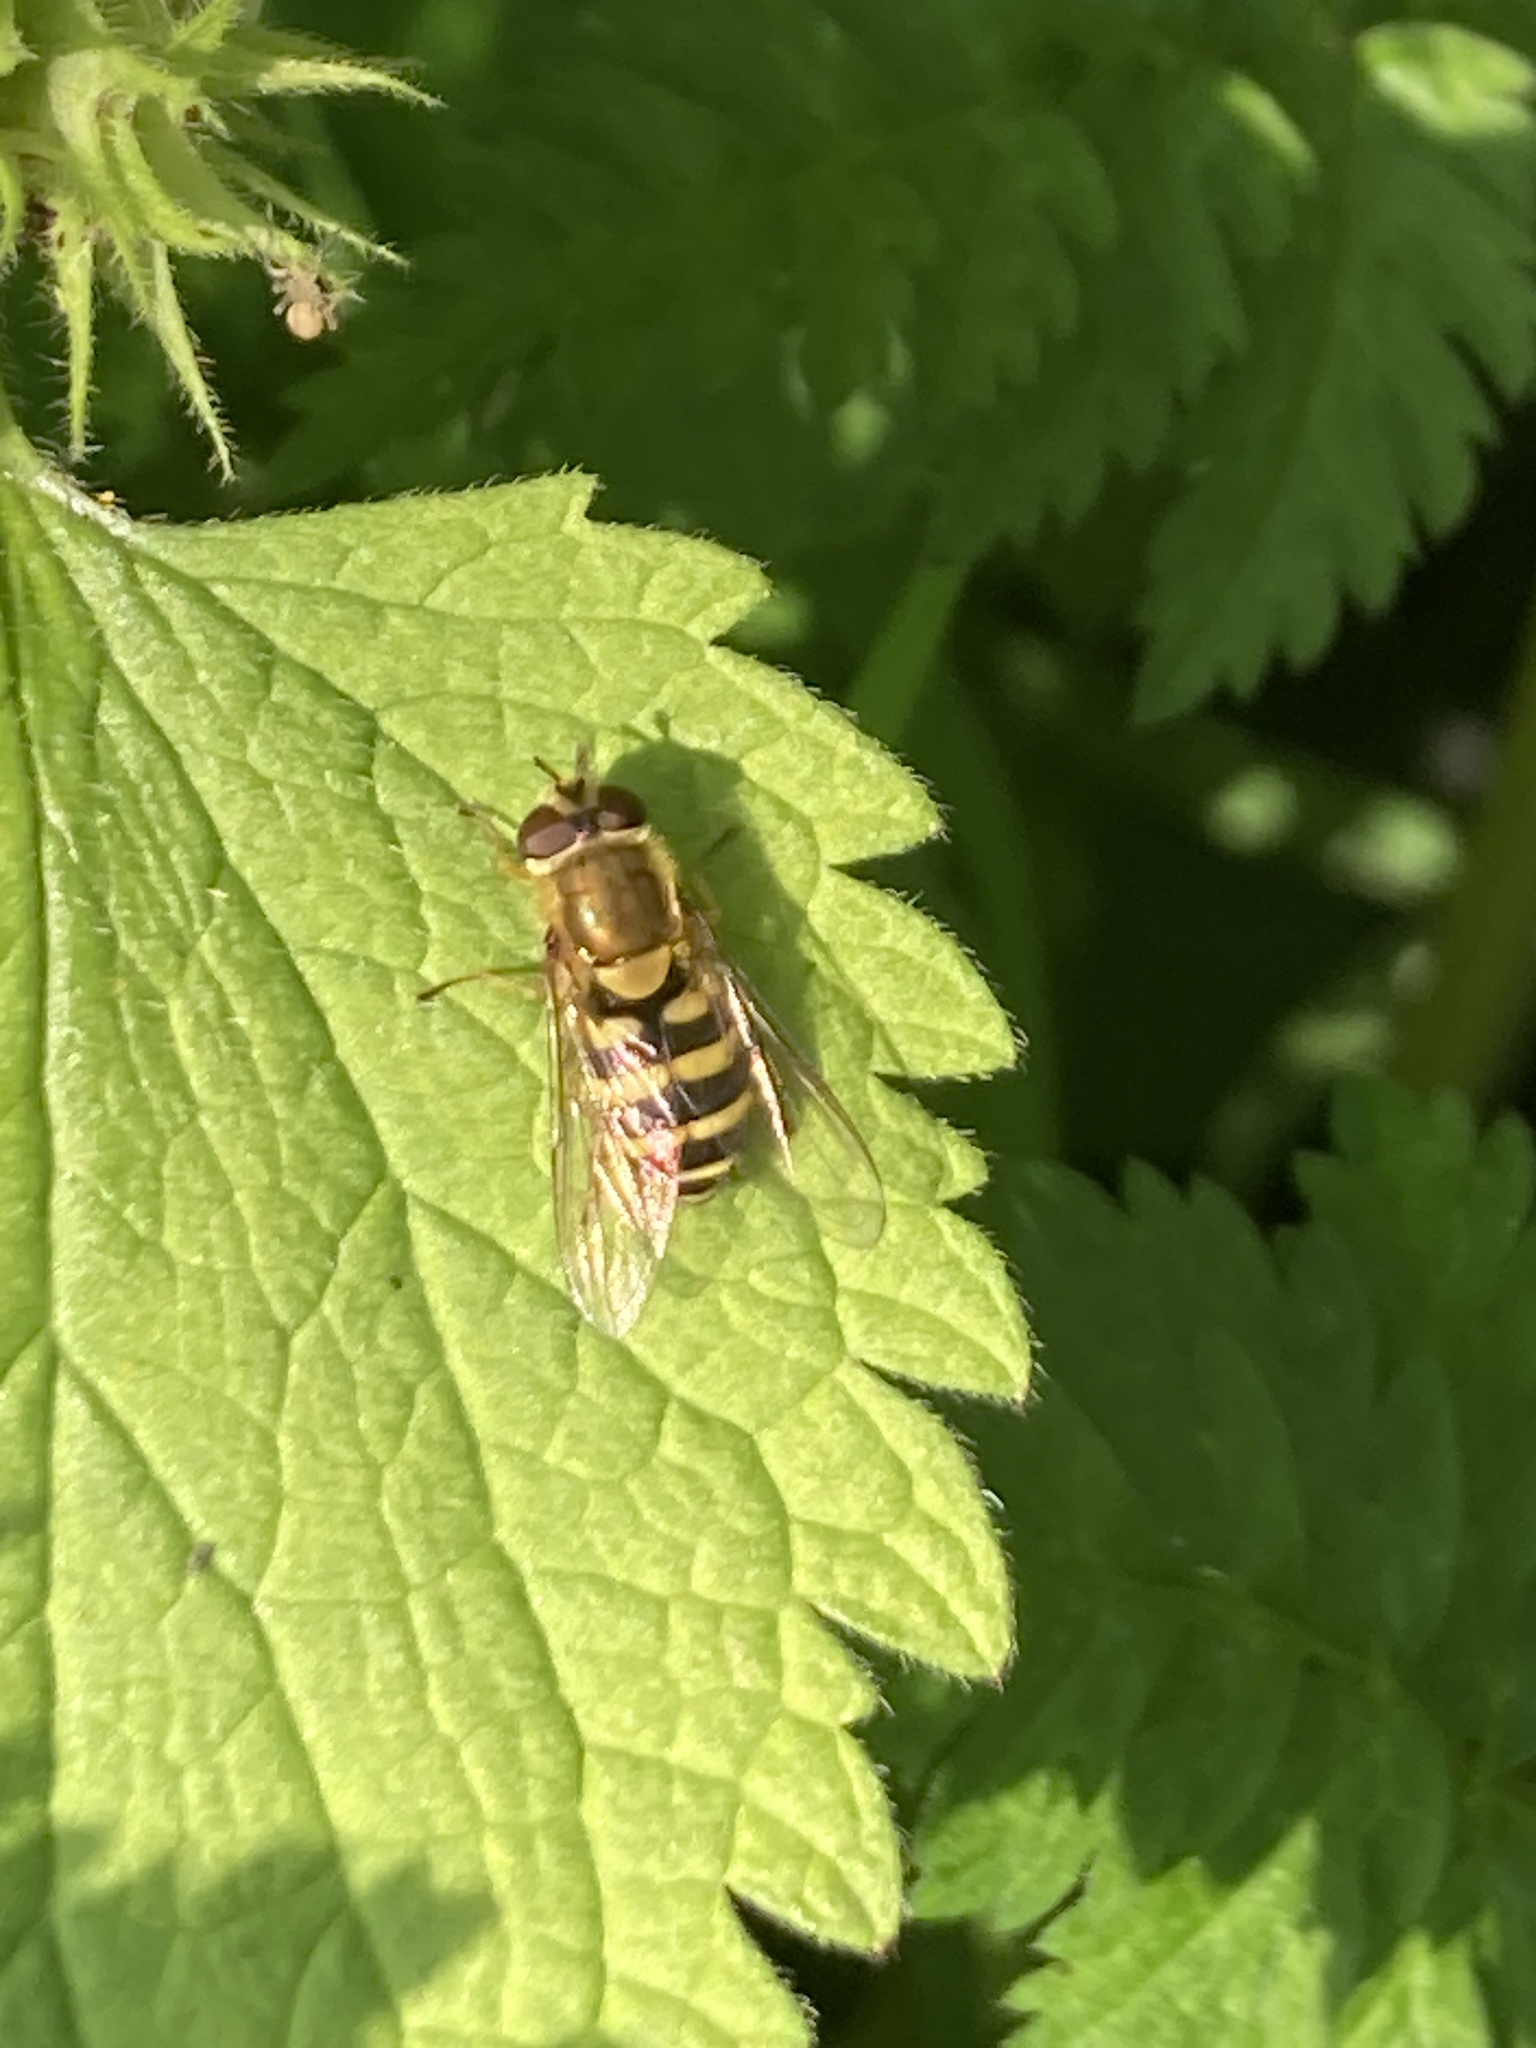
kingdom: Animalia
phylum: Arthropoda
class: Insecta
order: Diptera
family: Syrphidae
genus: Syrphus
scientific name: Syrphus
